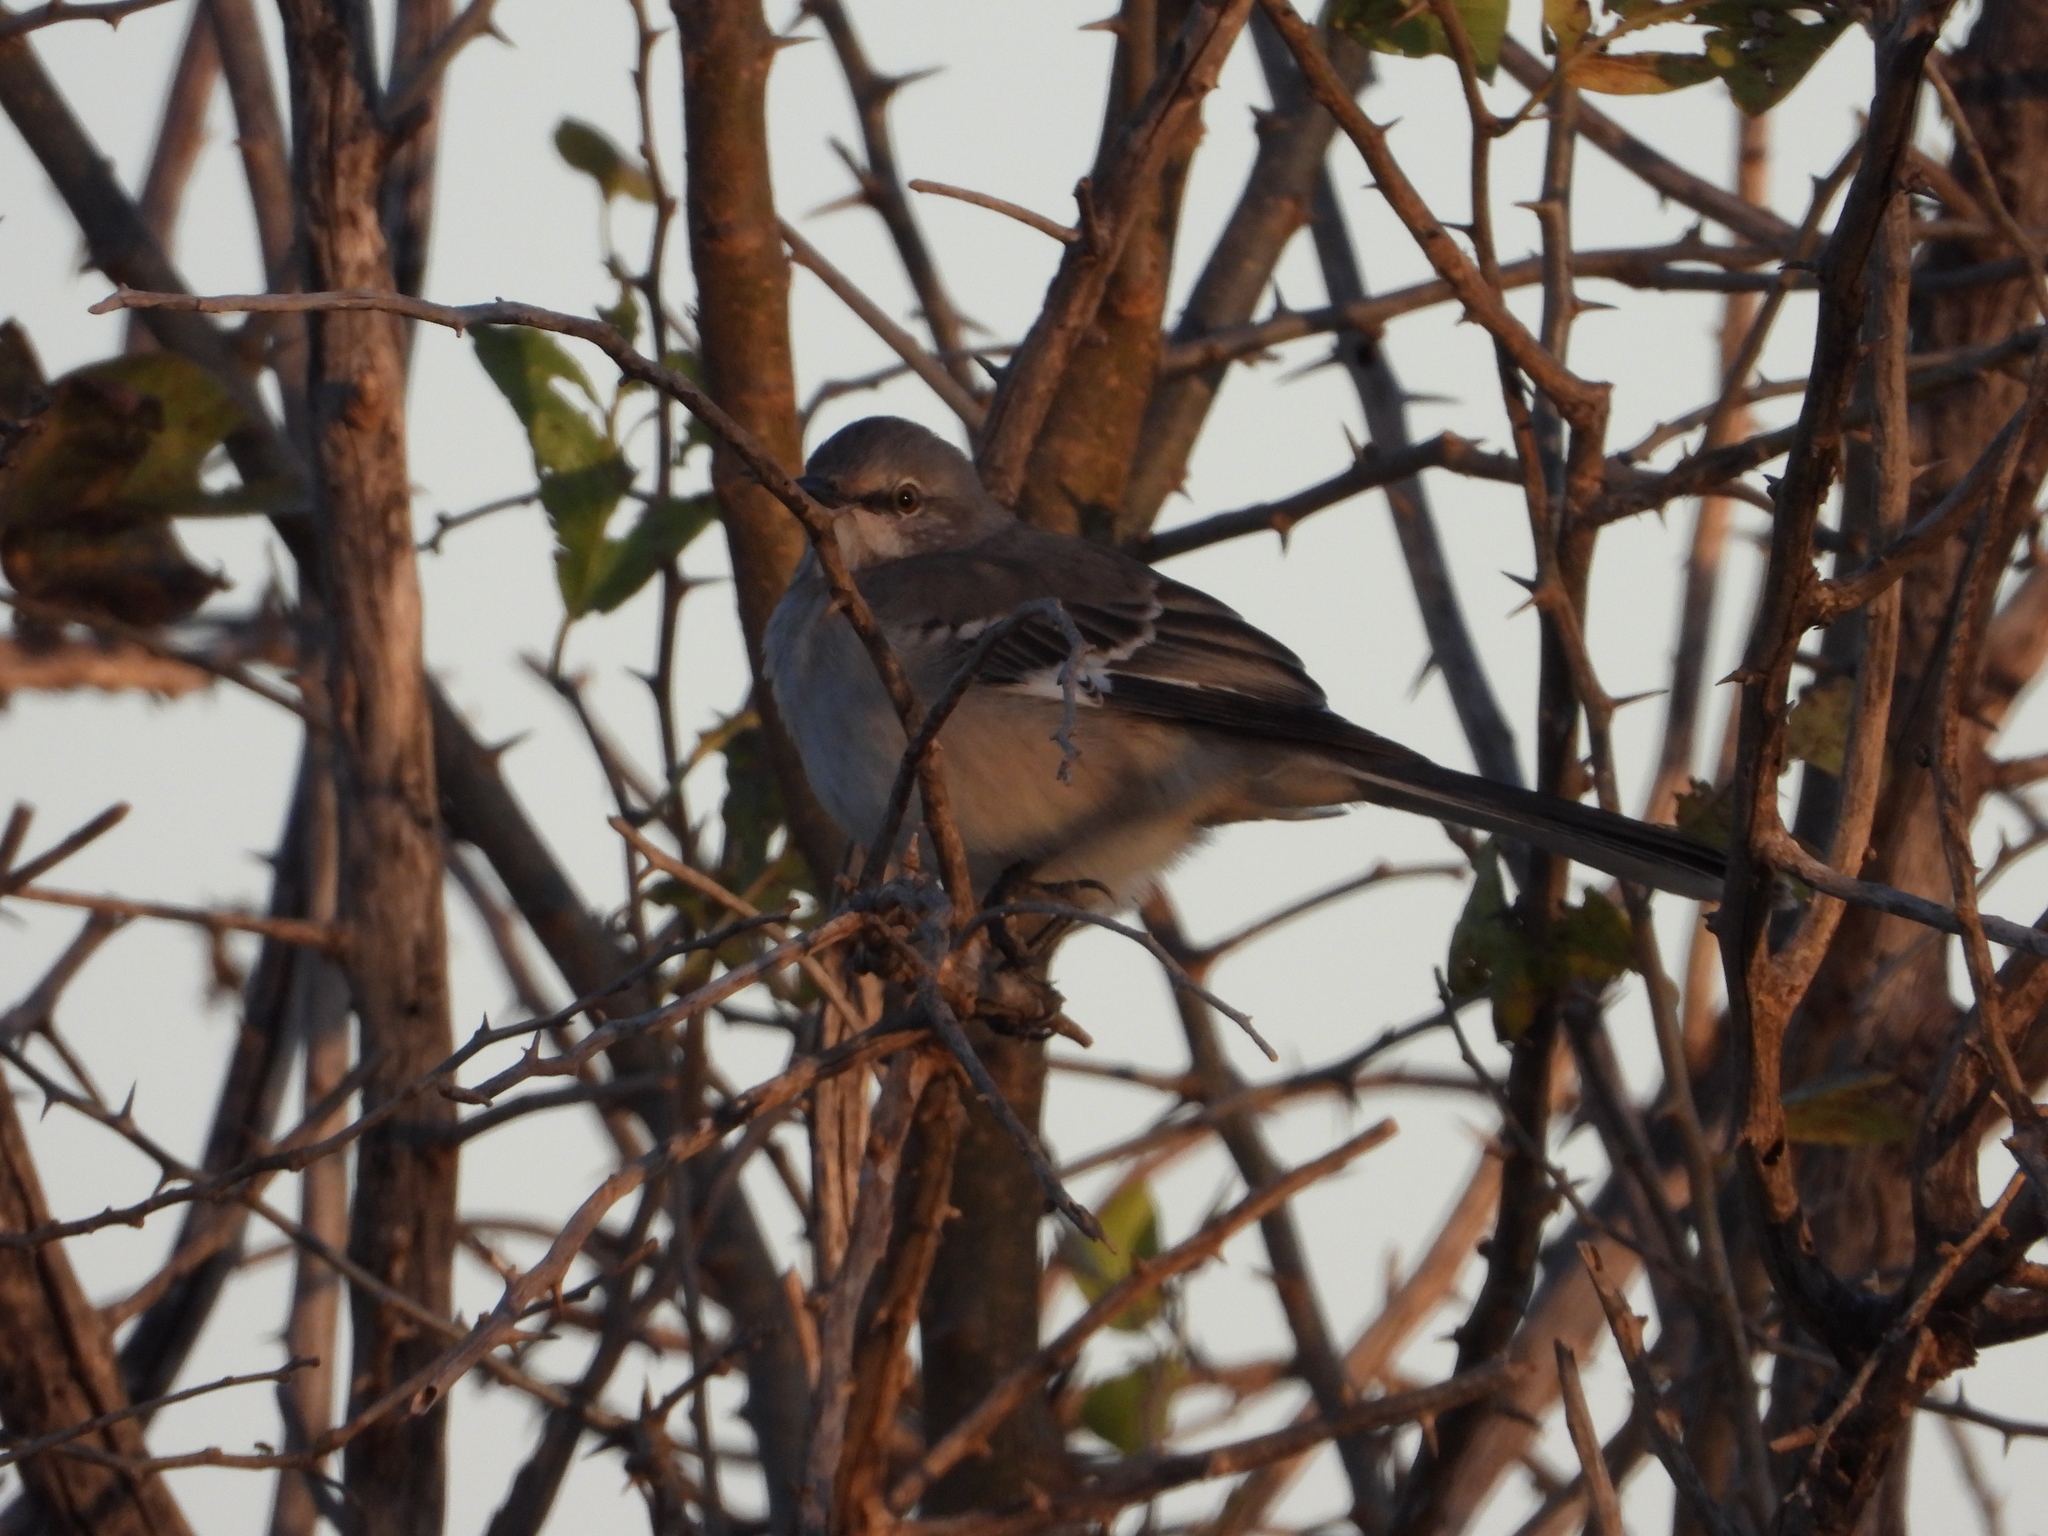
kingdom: Animalia
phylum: Chordata
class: Aves
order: Passeriformes
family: Mimidae
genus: Mimus
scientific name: Mimus polyglottos
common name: Northern mockingbird
